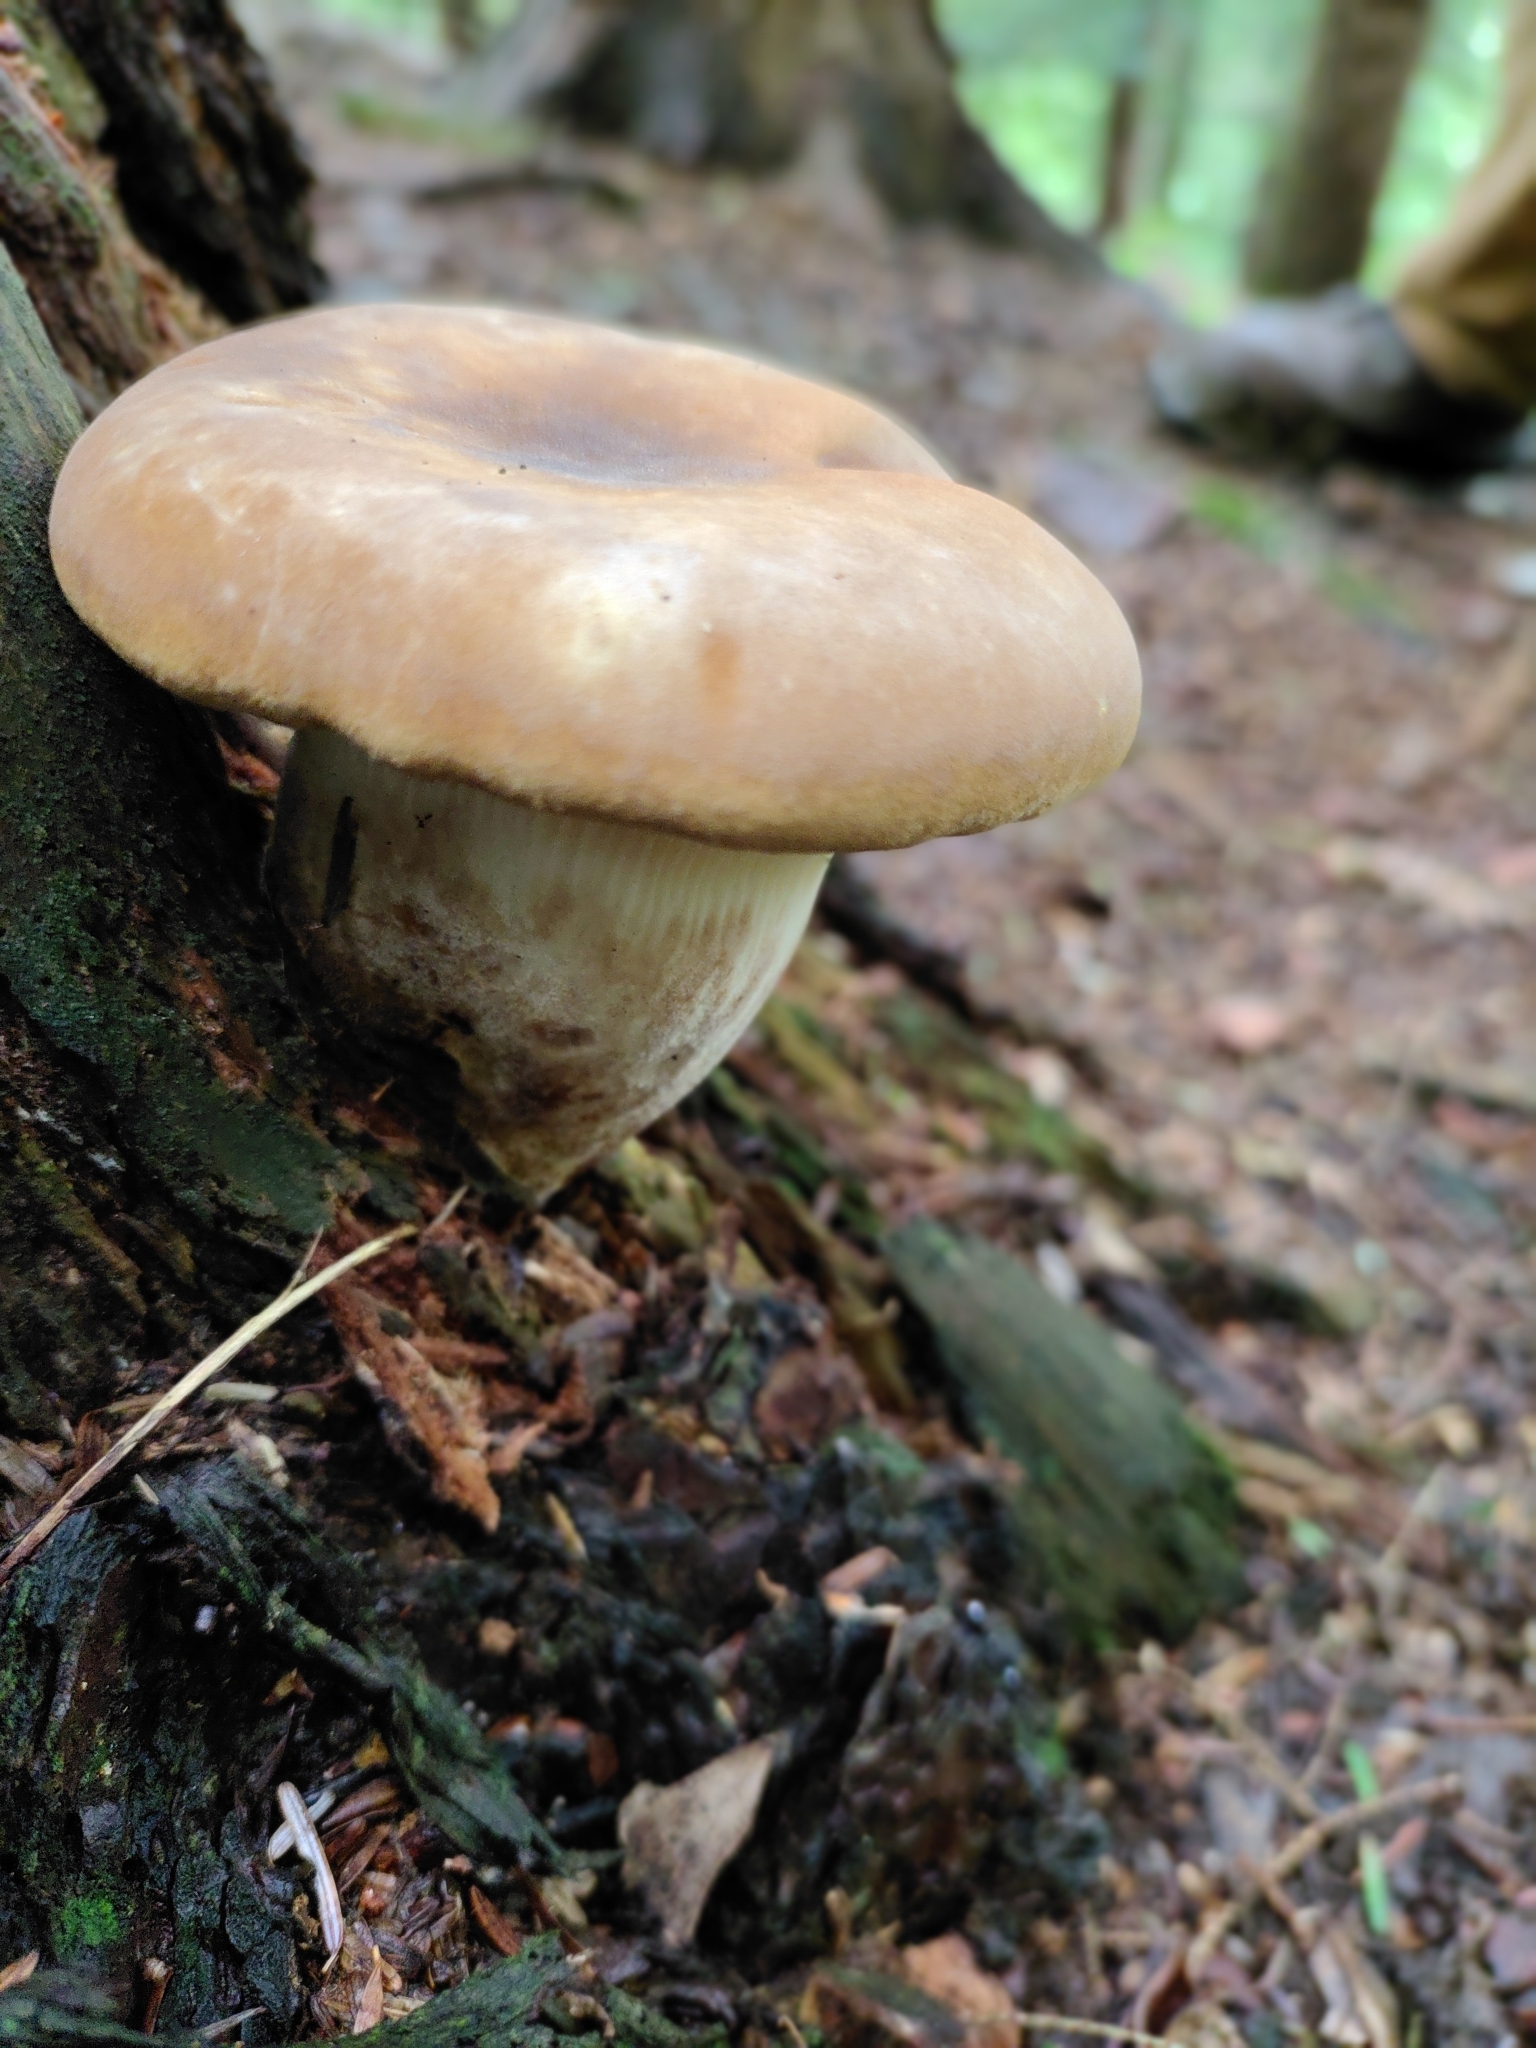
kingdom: Fungi
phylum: Basidiomycota
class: Agaricomycetes
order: Boletales
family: Tapinellaceae
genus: Tapinella
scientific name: Tapinella atrotomentosa
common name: Velvet rollrim
